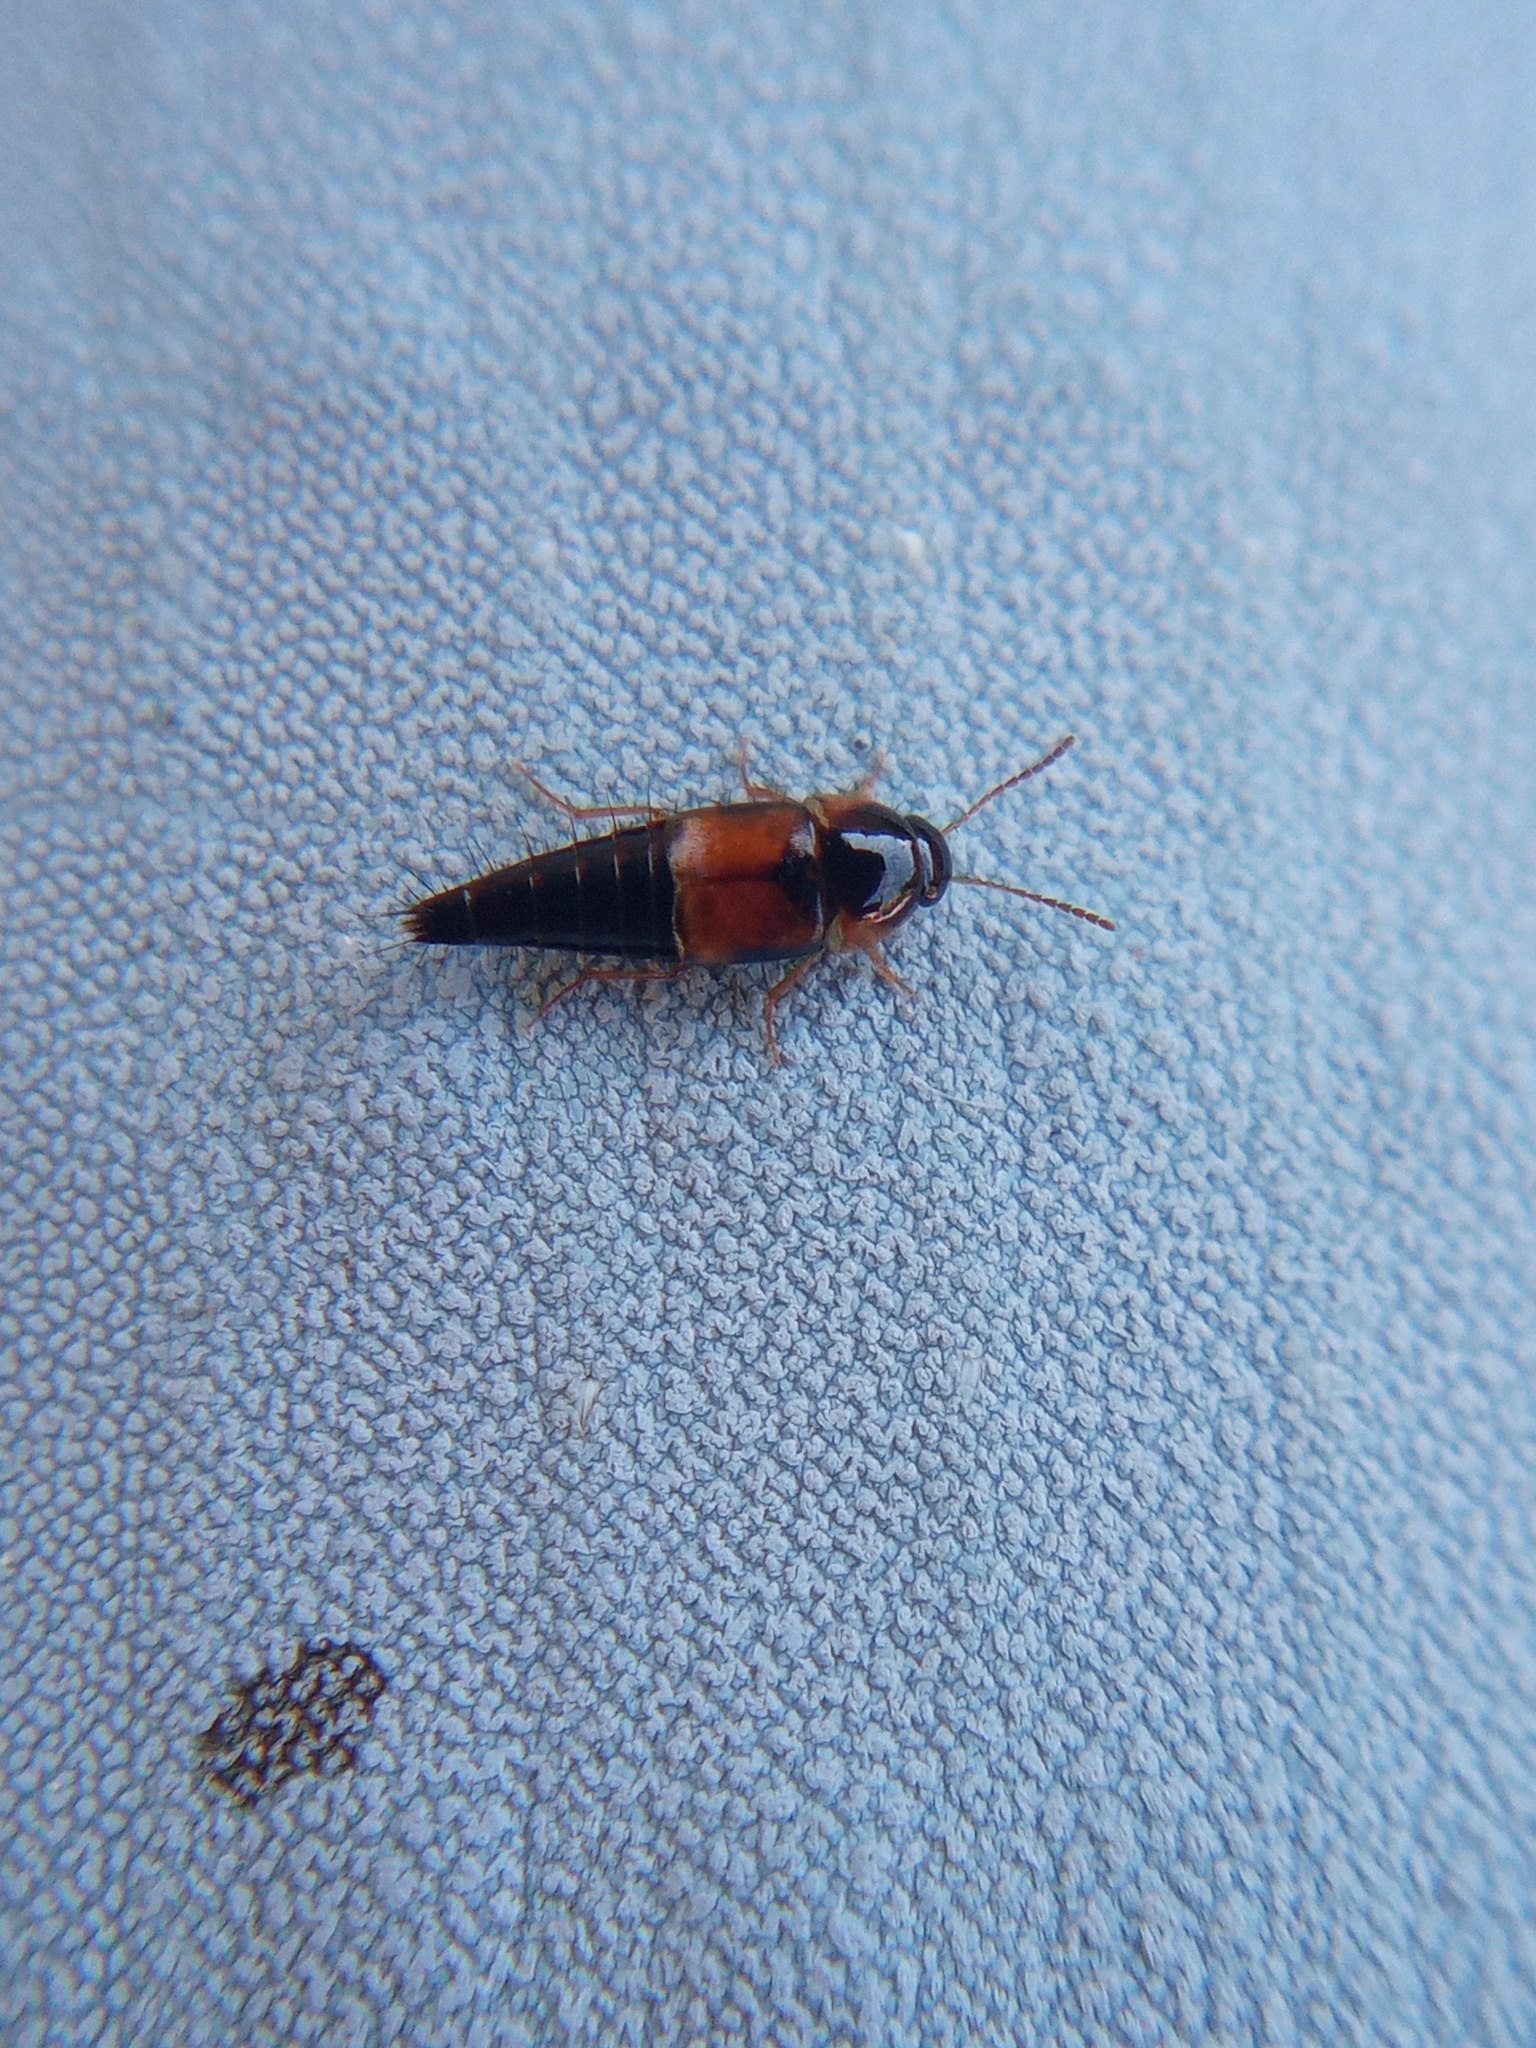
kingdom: Animalia
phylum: Arthropoda
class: Insecta
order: Coleoptera
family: Staphylinidae
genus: Tachyporus
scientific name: Tachyporus hypnorum
